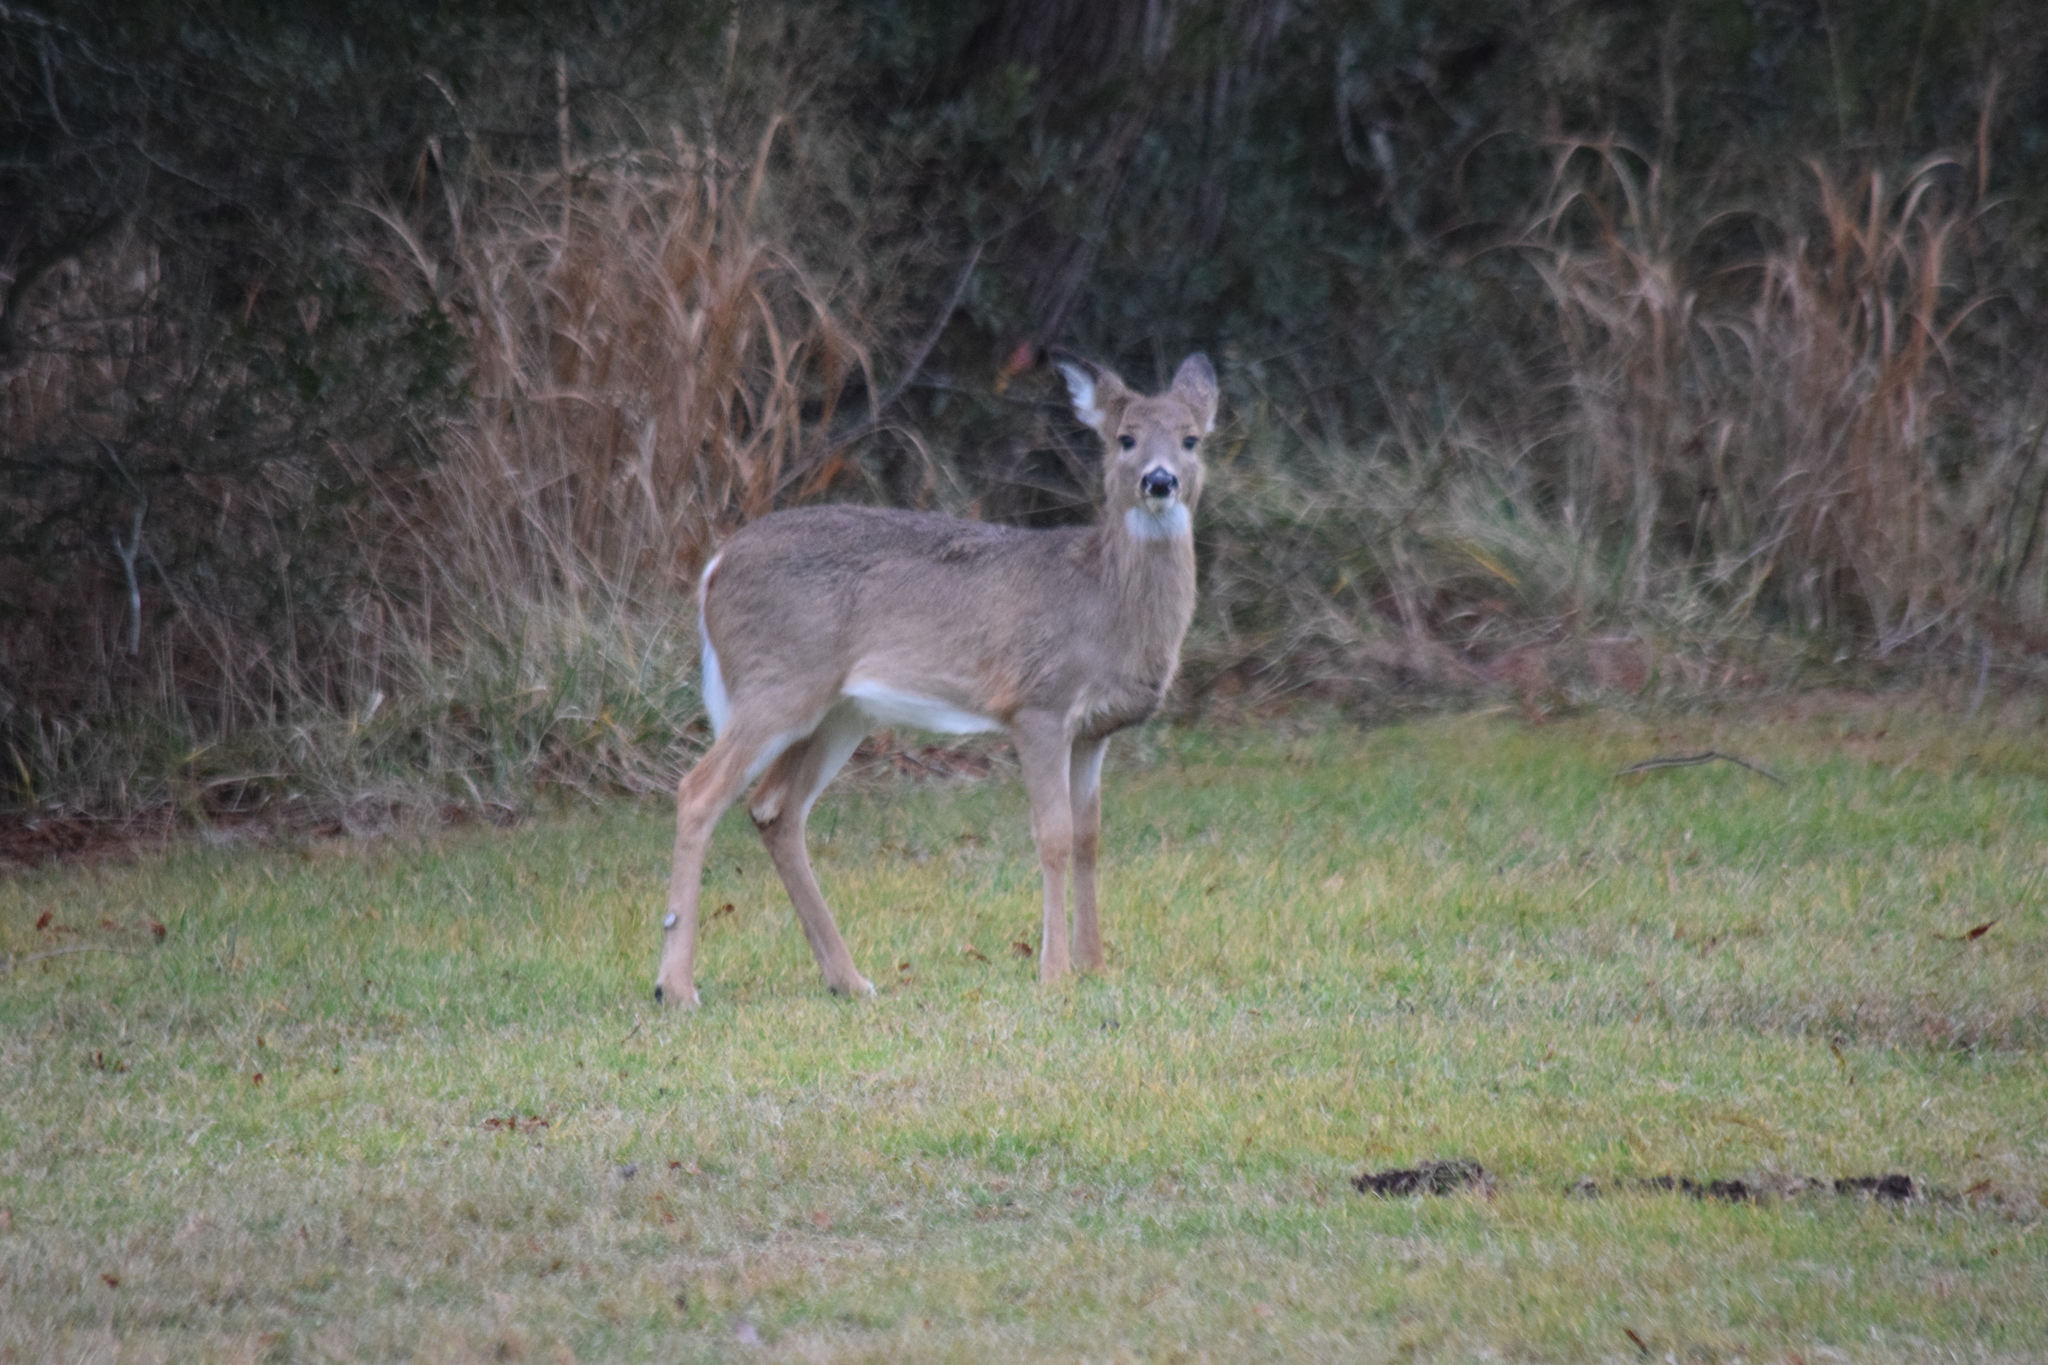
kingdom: Animalia
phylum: Chordata
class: Mammalia
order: Artiodactyla
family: Cervidae
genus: Odocoileus
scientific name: Odocoileus virginianus
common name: White-tailed deer
